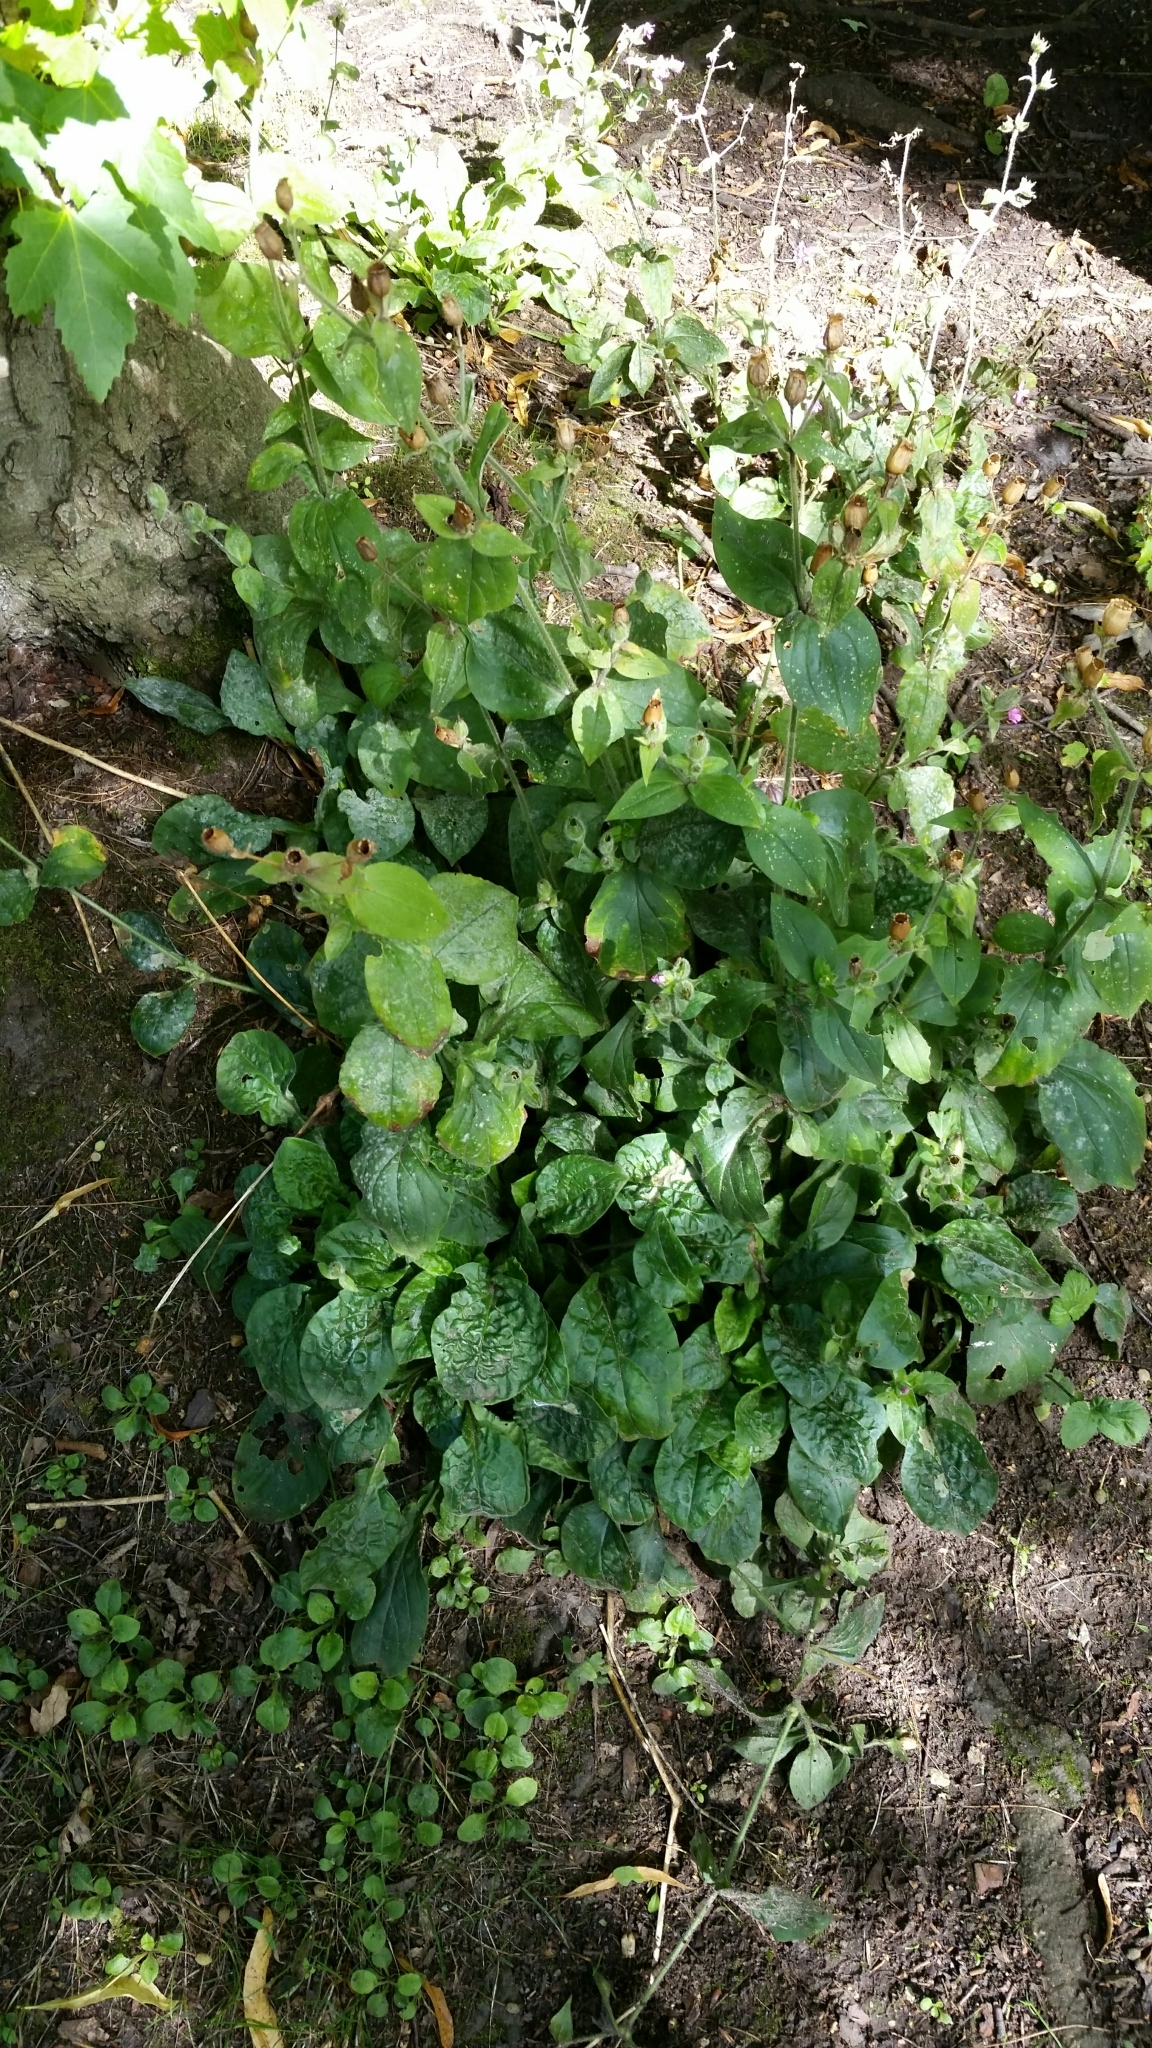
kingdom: Plantae
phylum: Tracheophyta
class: Magnoliopsida
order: Caryophyllales
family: Caryophyllaceae
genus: Silene
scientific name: Silene dioica
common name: Red campion
